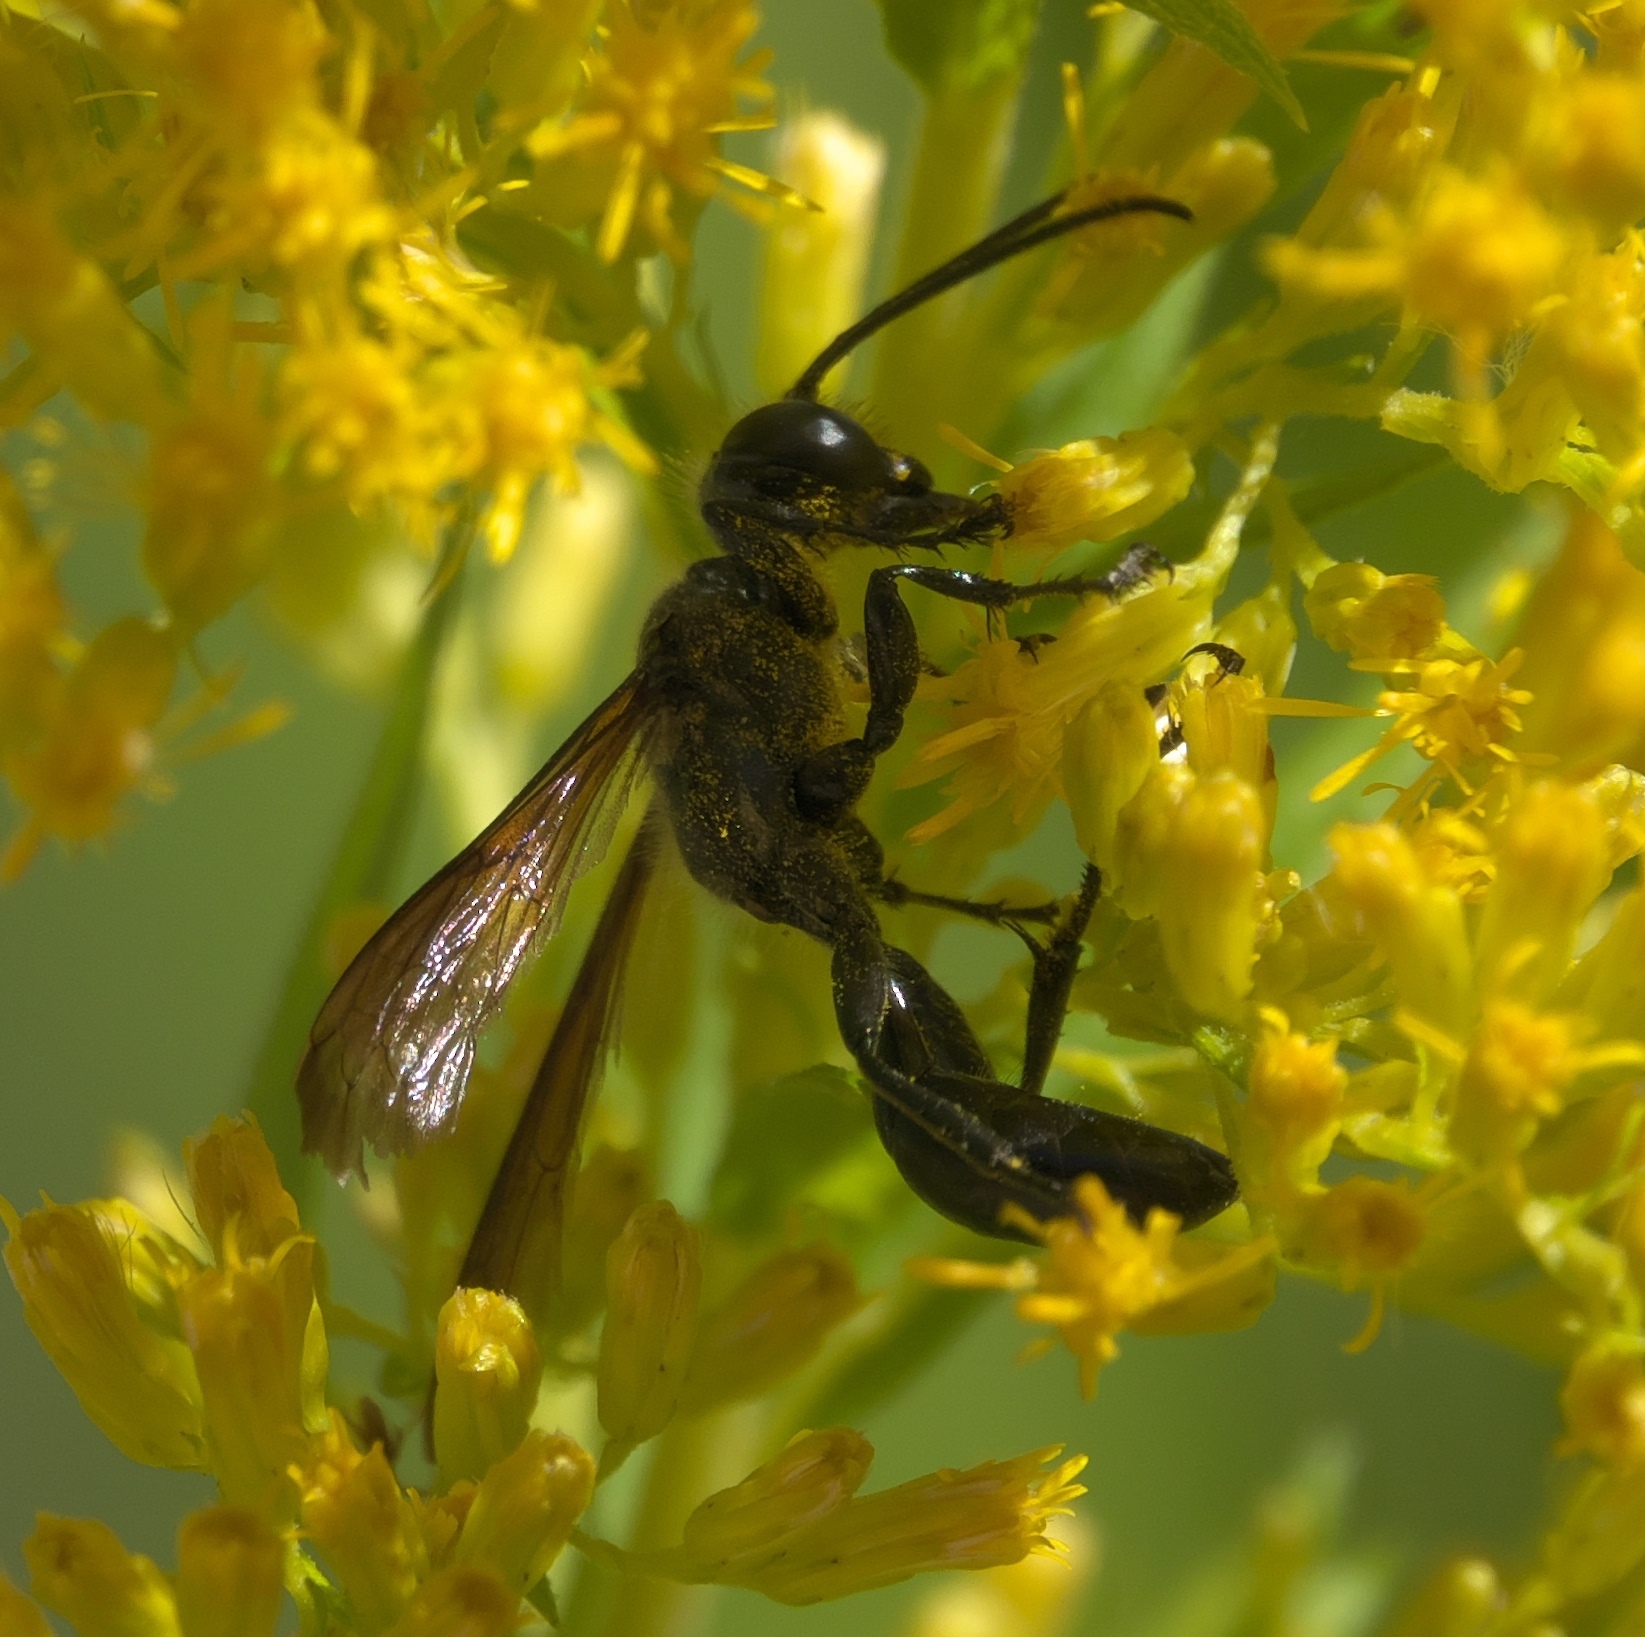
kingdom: Animalia
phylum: Arthropoda
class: Insecta
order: Hymenoptera
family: Sphecidae
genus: Isodontia
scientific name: Isodontia mexicana
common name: Mud dauber
